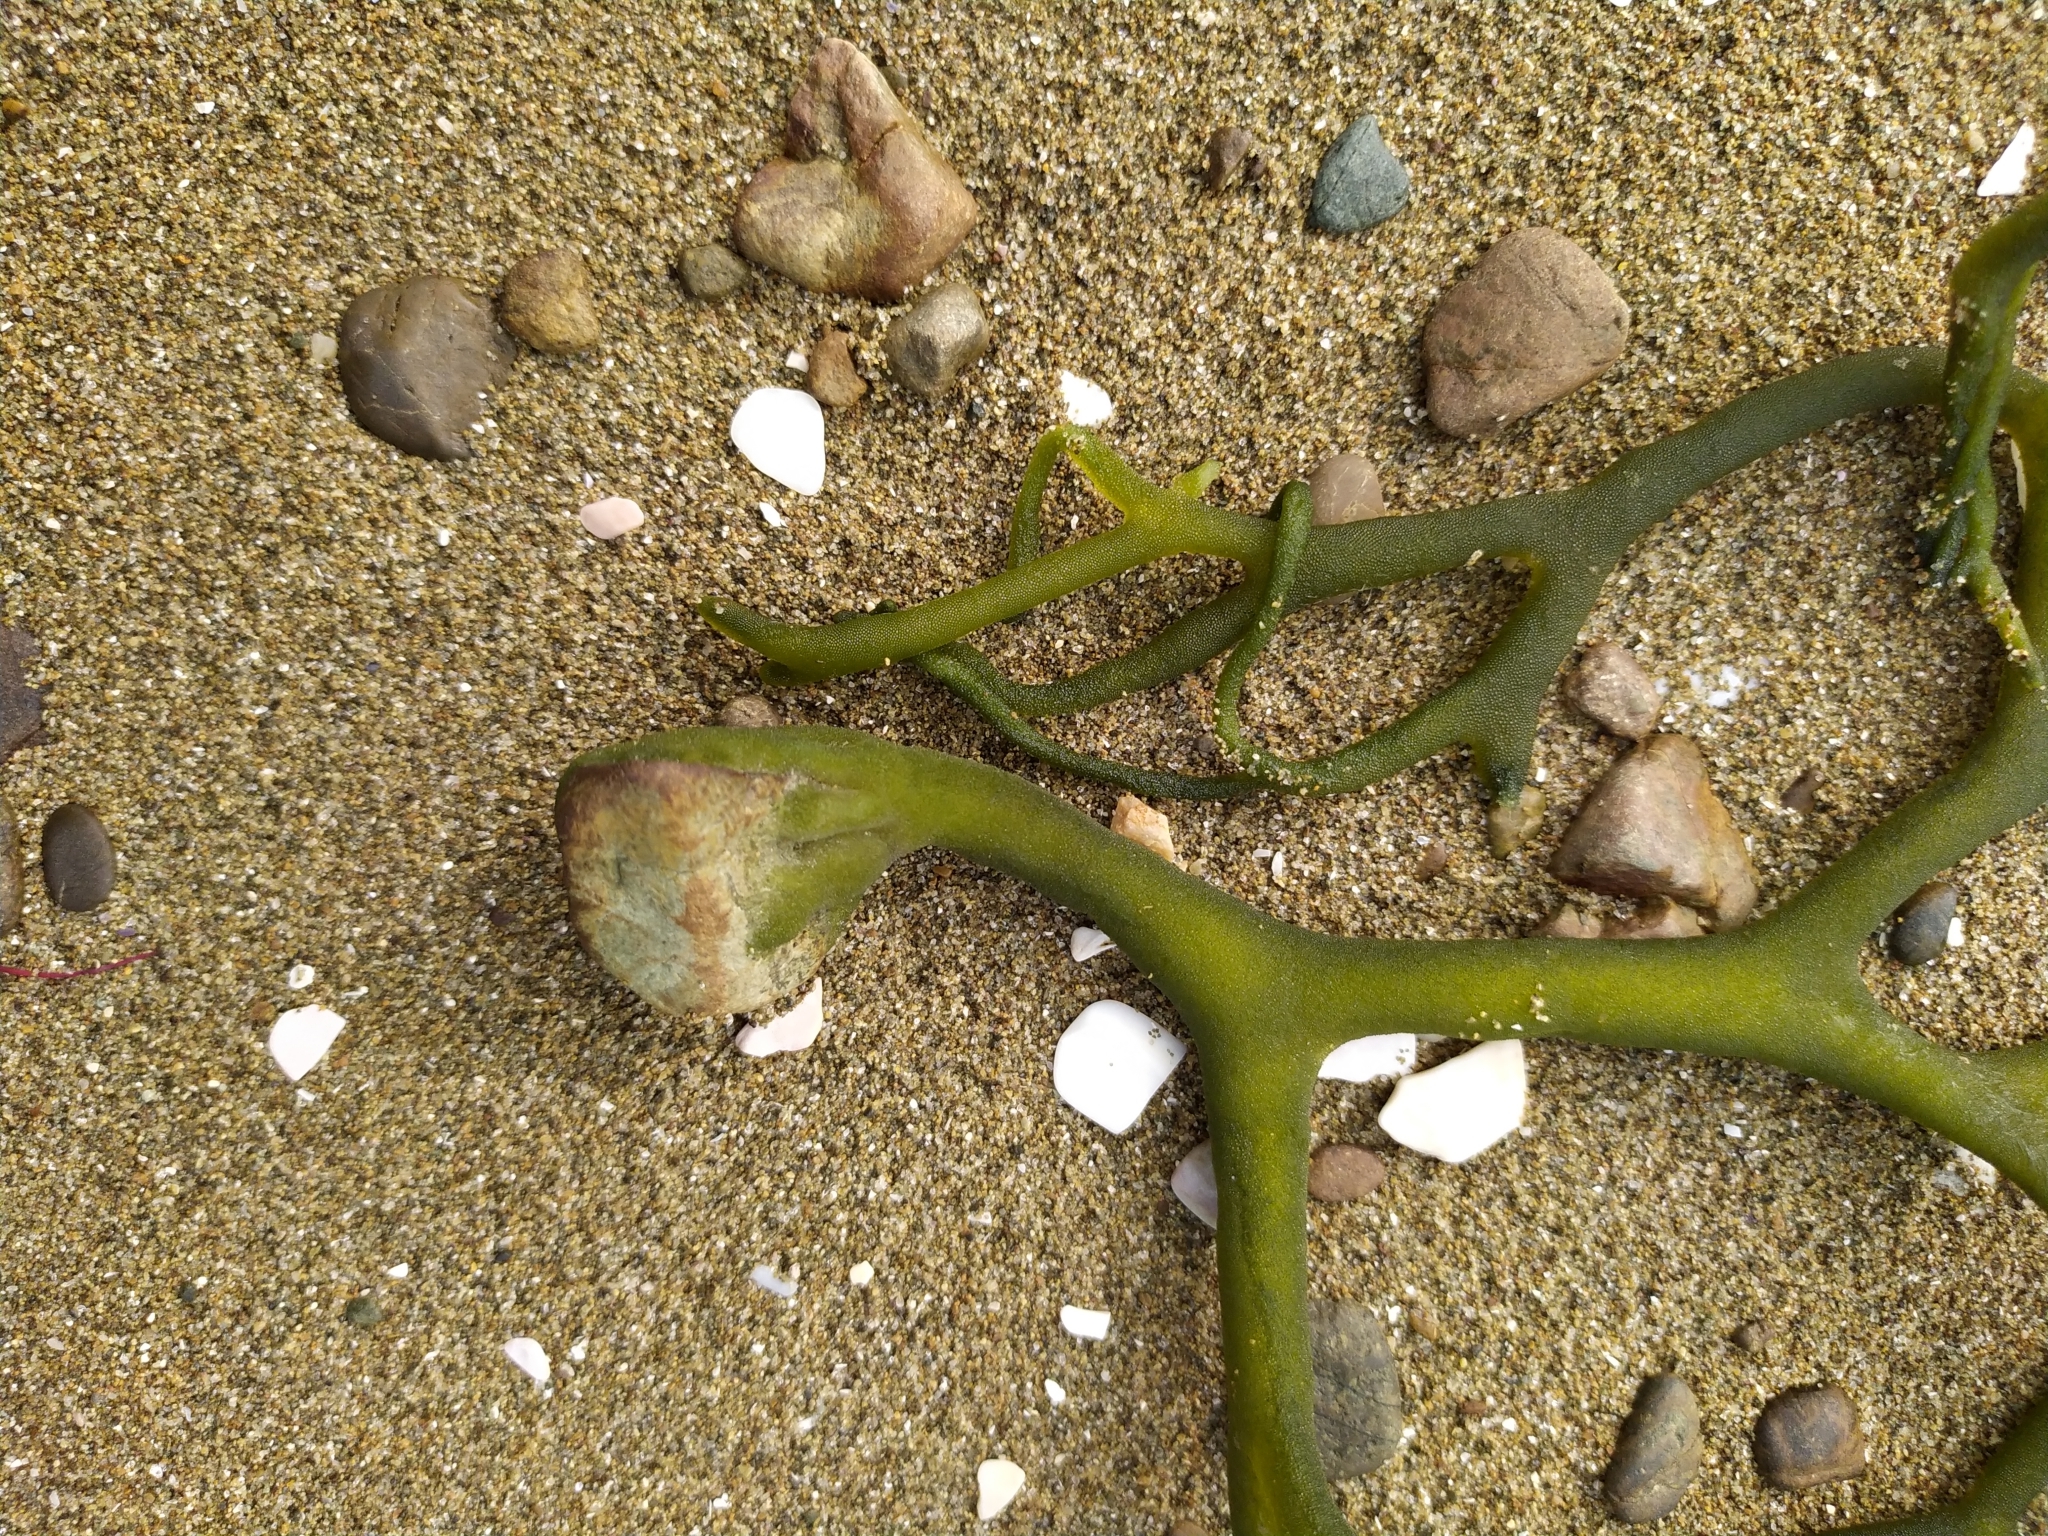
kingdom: Plantae
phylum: Chlorophyta
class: Ulvophyceae
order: Bryopsidales
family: Codiaceae
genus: Codium
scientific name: Codium fragile
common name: Dead man's fingers
